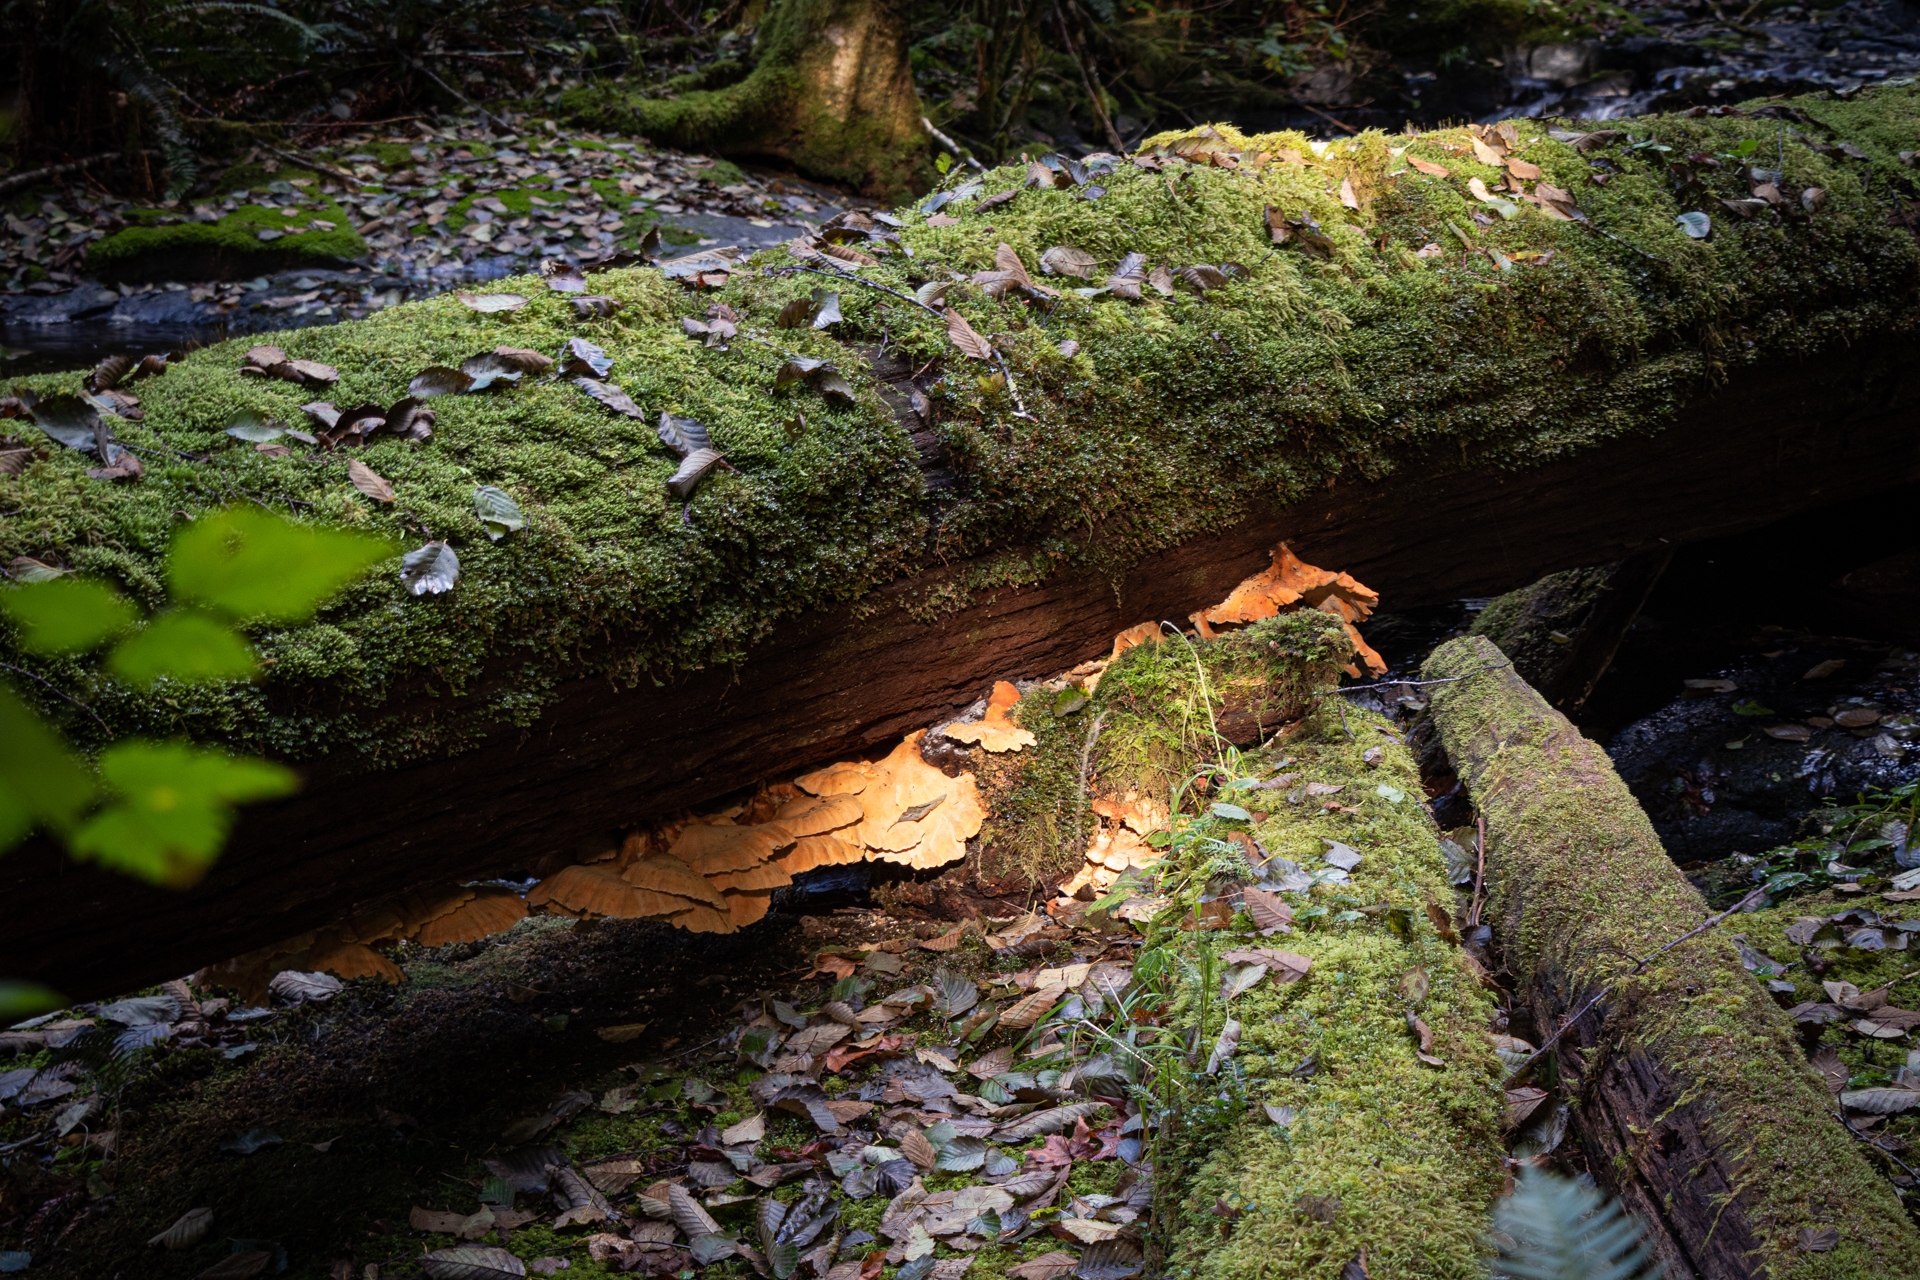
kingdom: Fungi
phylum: Basidiomycota
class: Agaricomycetes
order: Polyporales
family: Laetiporaceae
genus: Laetiporus
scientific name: Laetiporus conifericola
